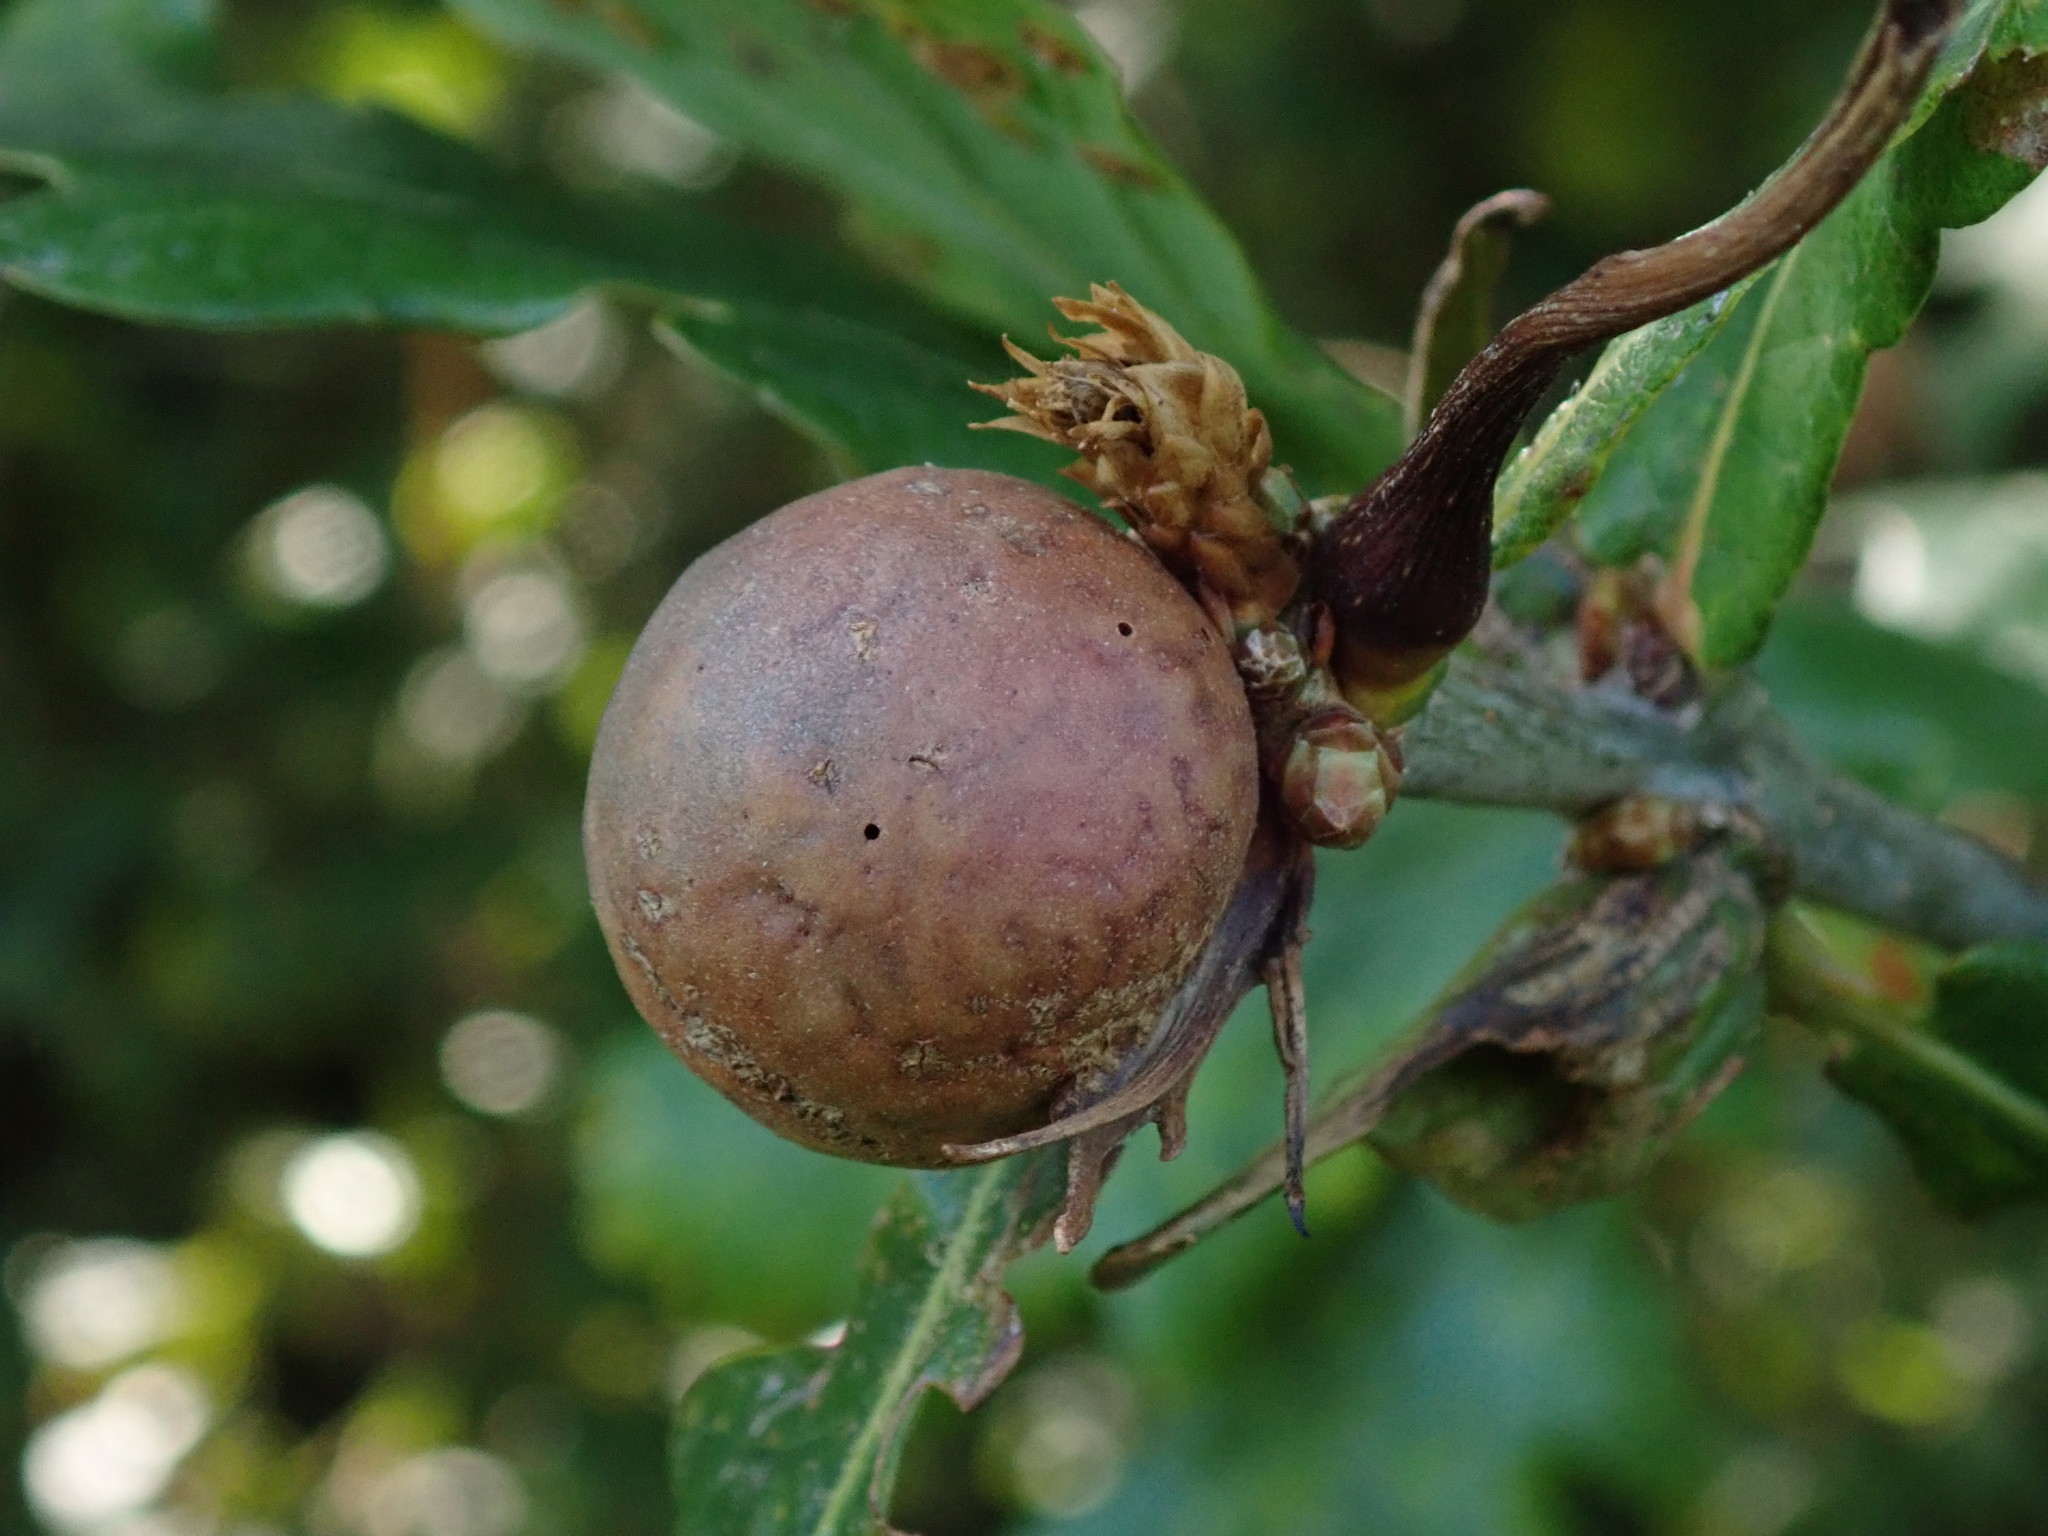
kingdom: Animalia
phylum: Arthropoda
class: Insecta
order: Hymenoptera
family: Cynipidae
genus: Andricus
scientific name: Andricus kollari
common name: Marble gall
